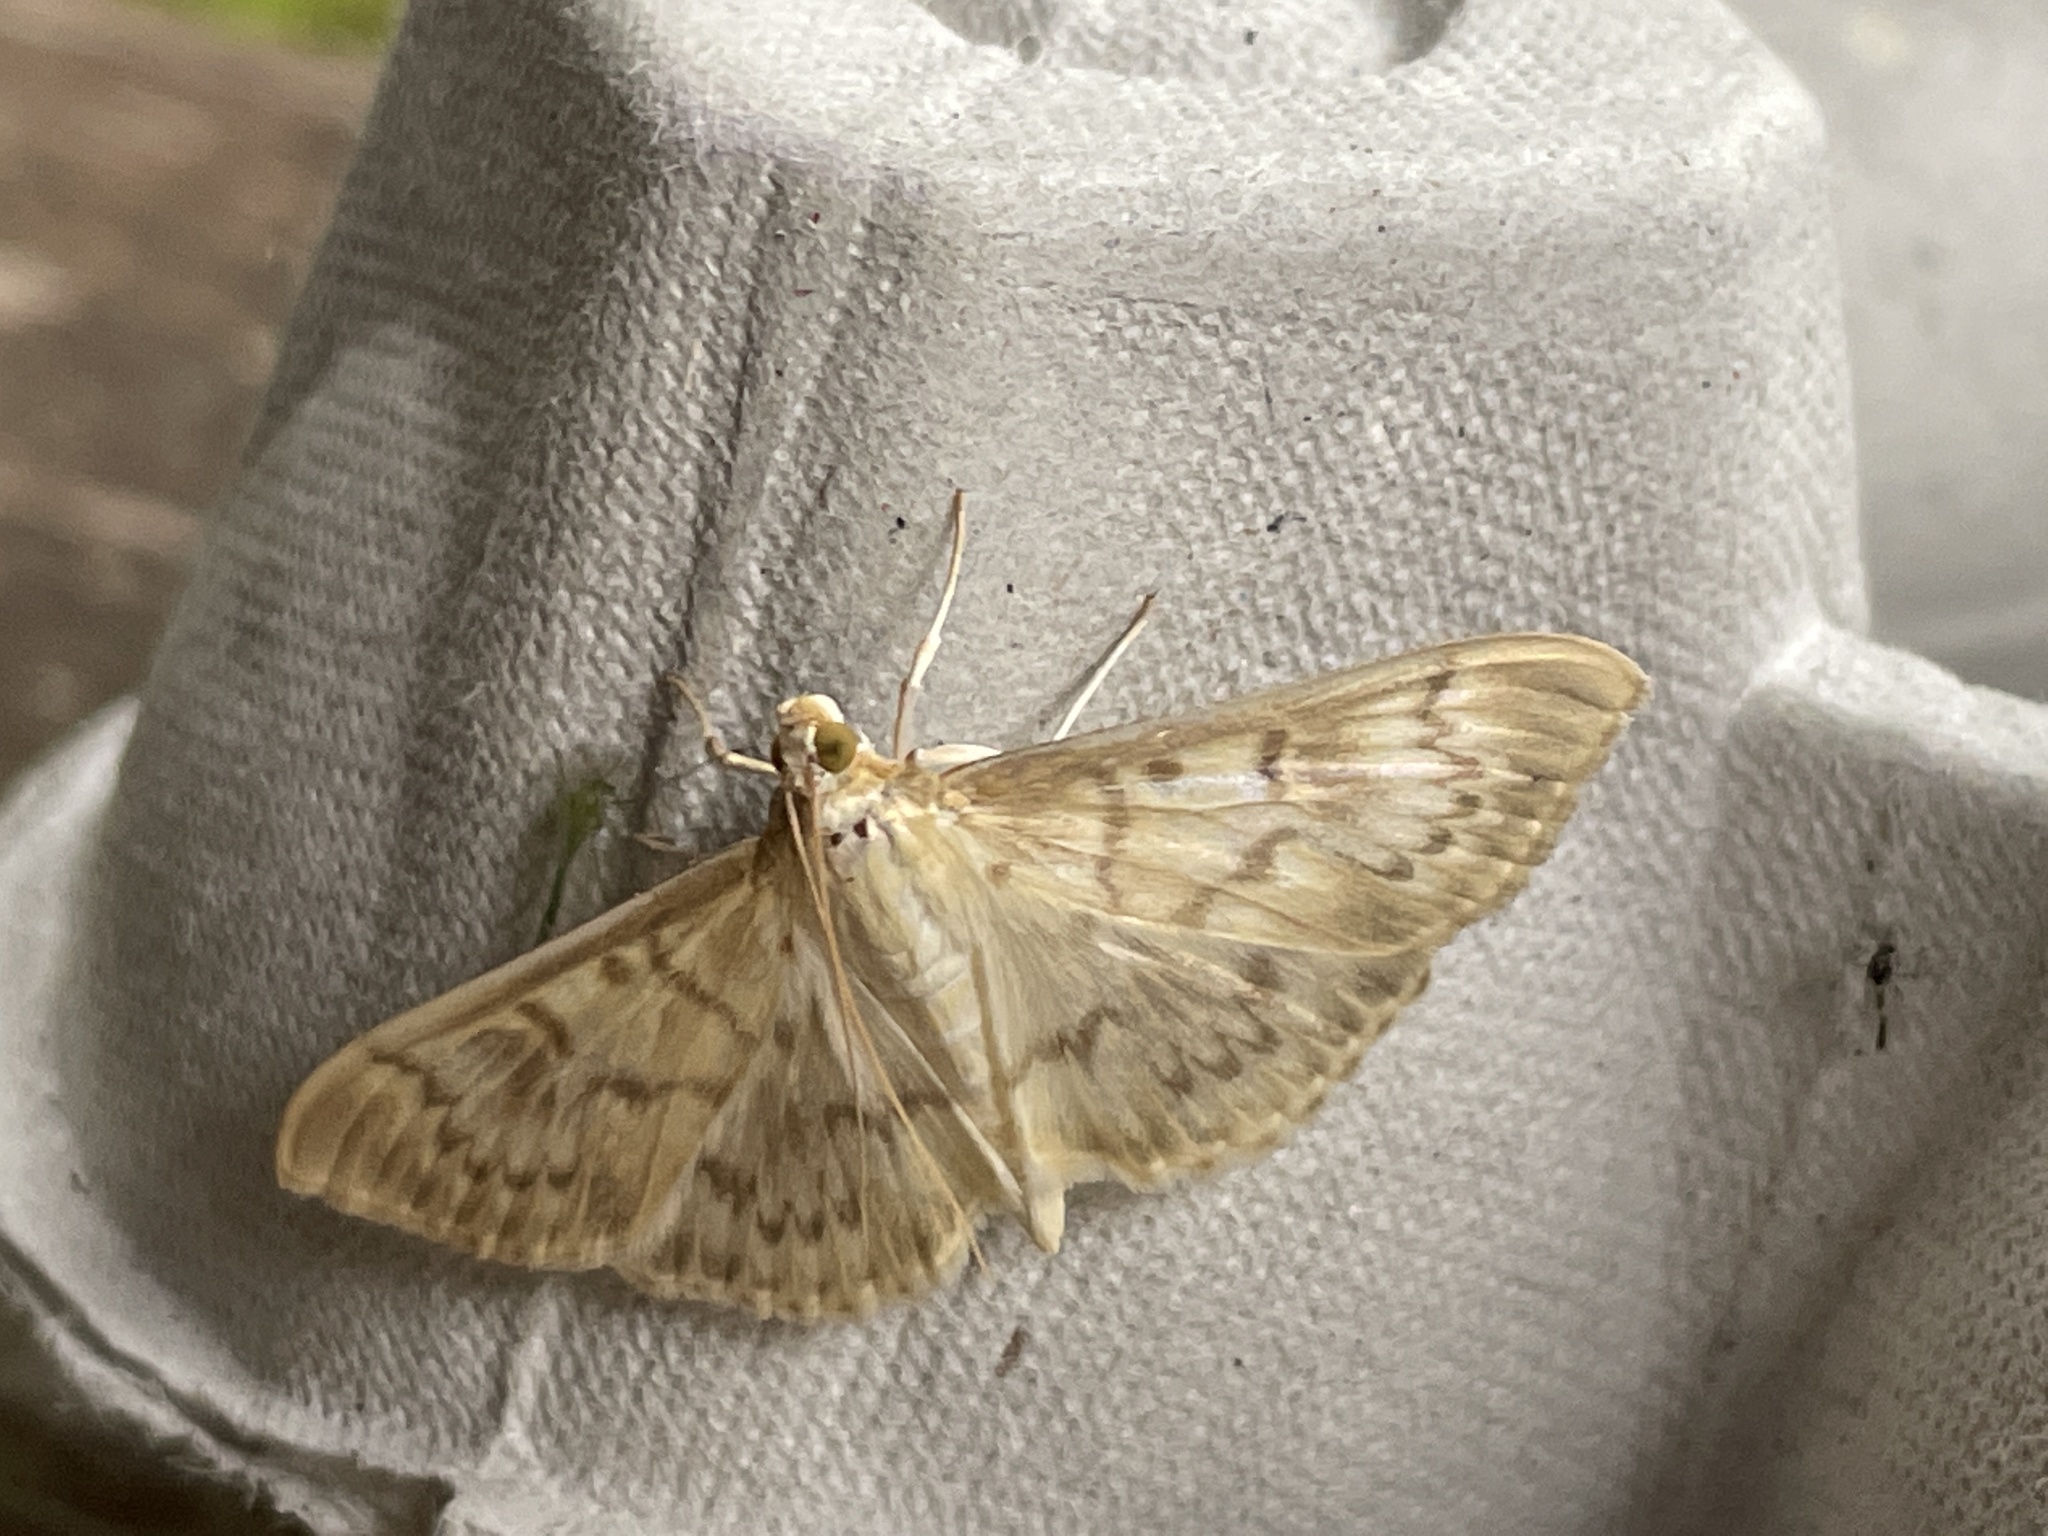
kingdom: Animalia
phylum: Arthropoda
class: Insecta
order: Lepidoptera
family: Crambidae
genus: Patania
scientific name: Patania ruralis
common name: Mother of pearl
